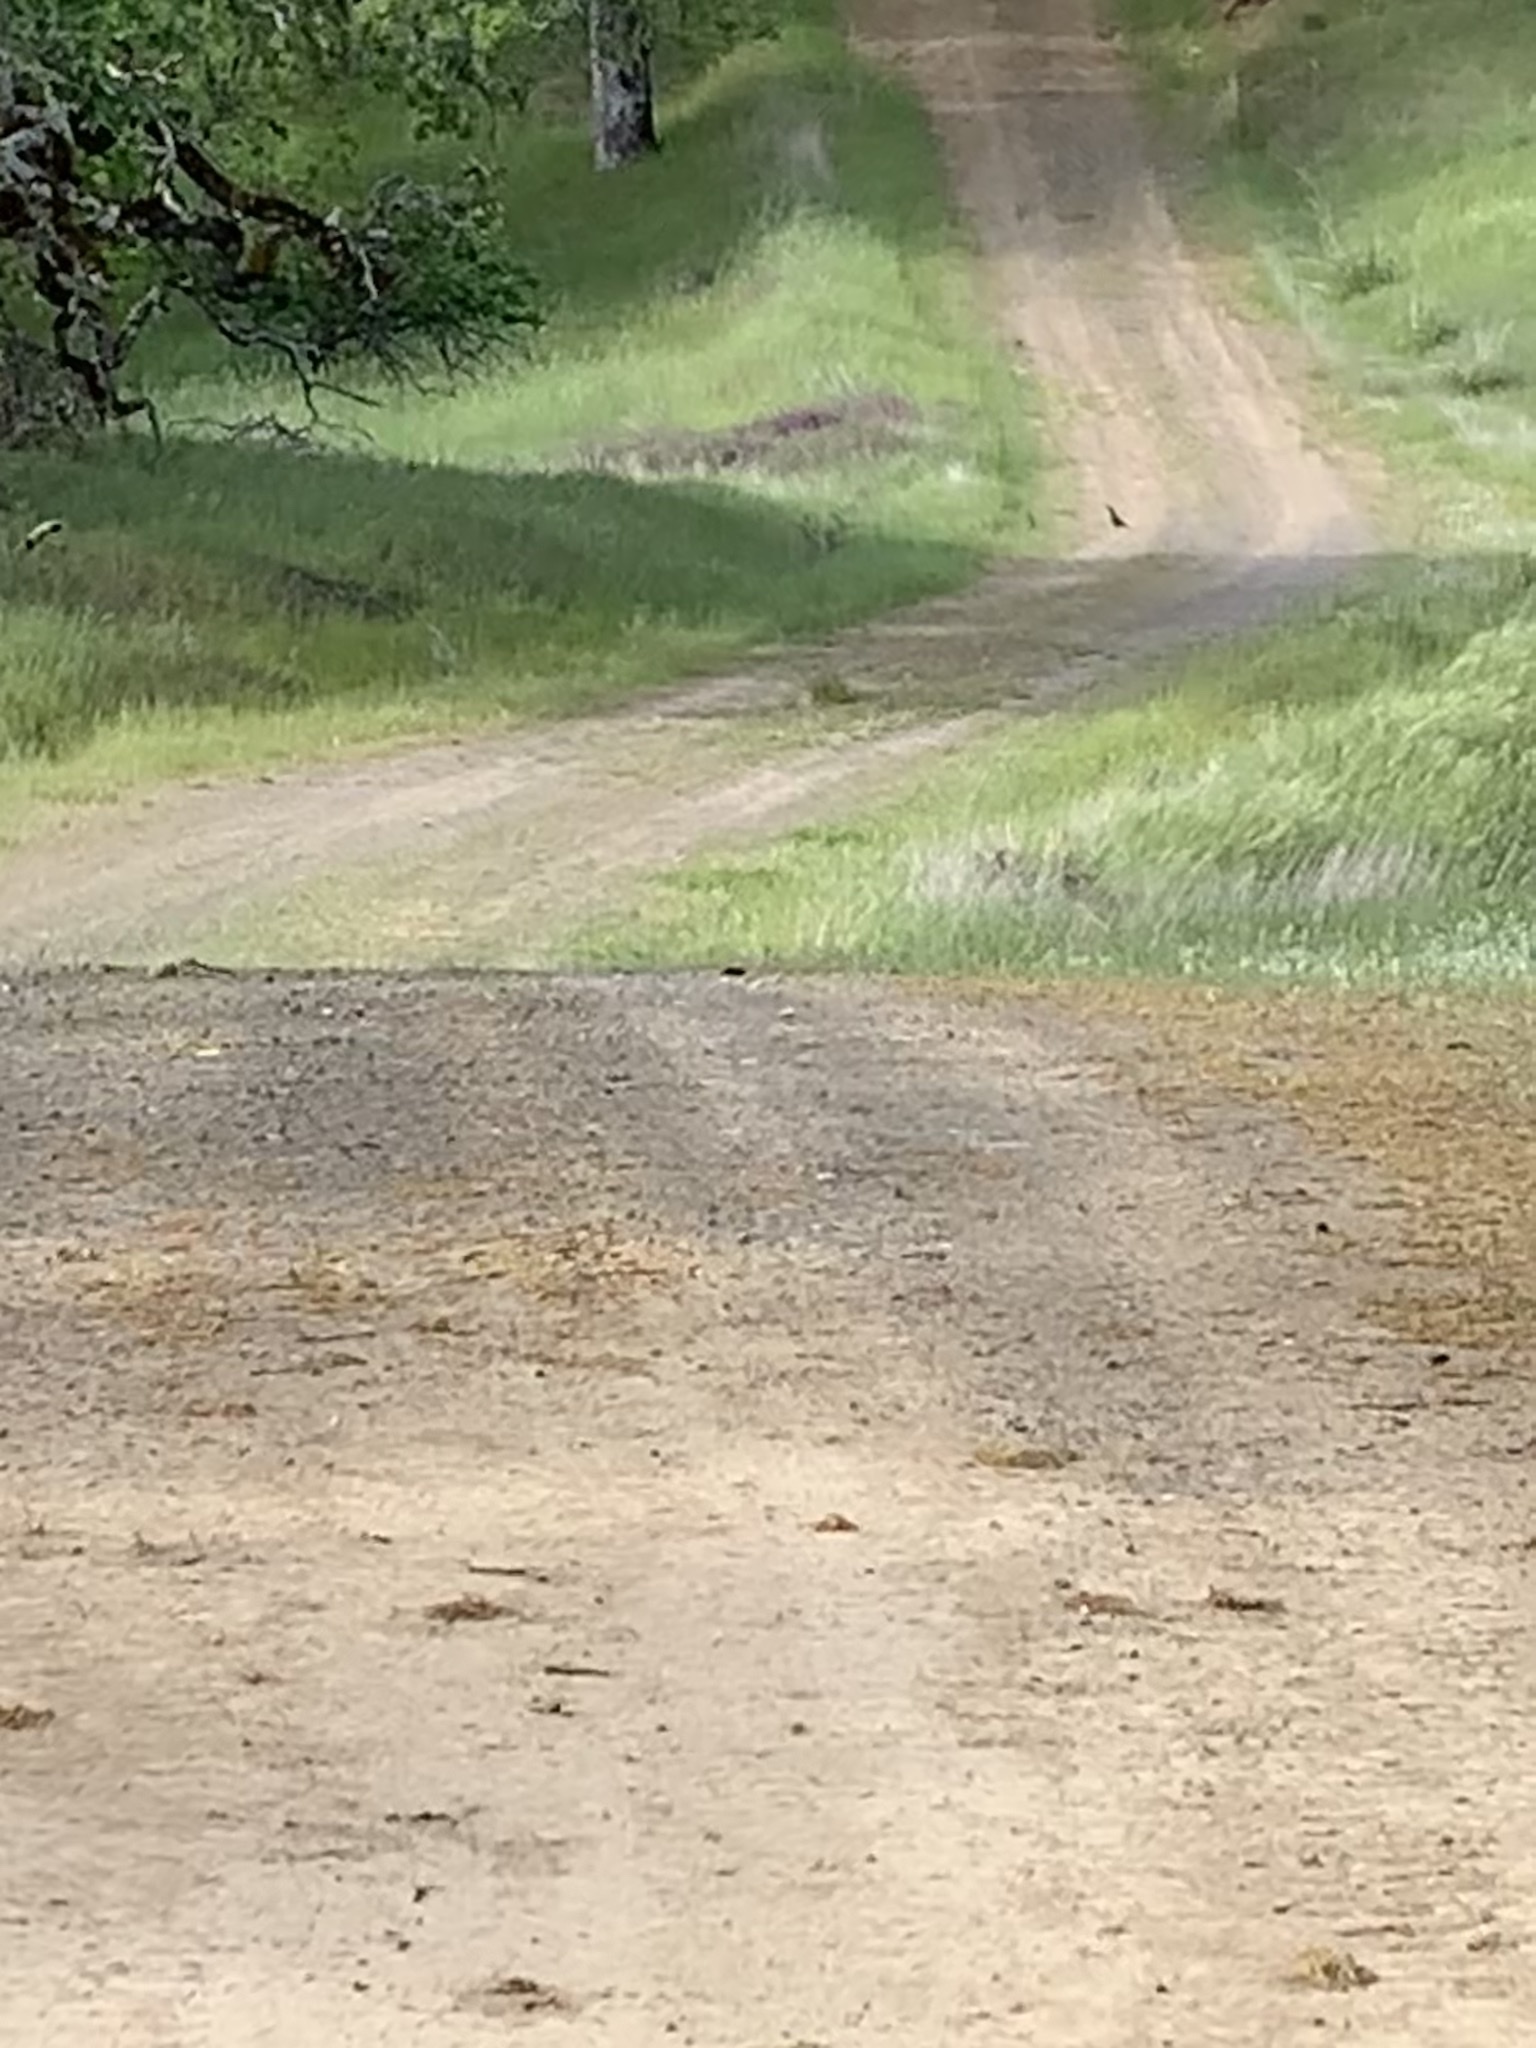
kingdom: Animalia
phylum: Chordata
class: Aves
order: Galliformes
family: Odontophoridae
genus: Callipepla
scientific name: Callipepla californica
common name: California quail
